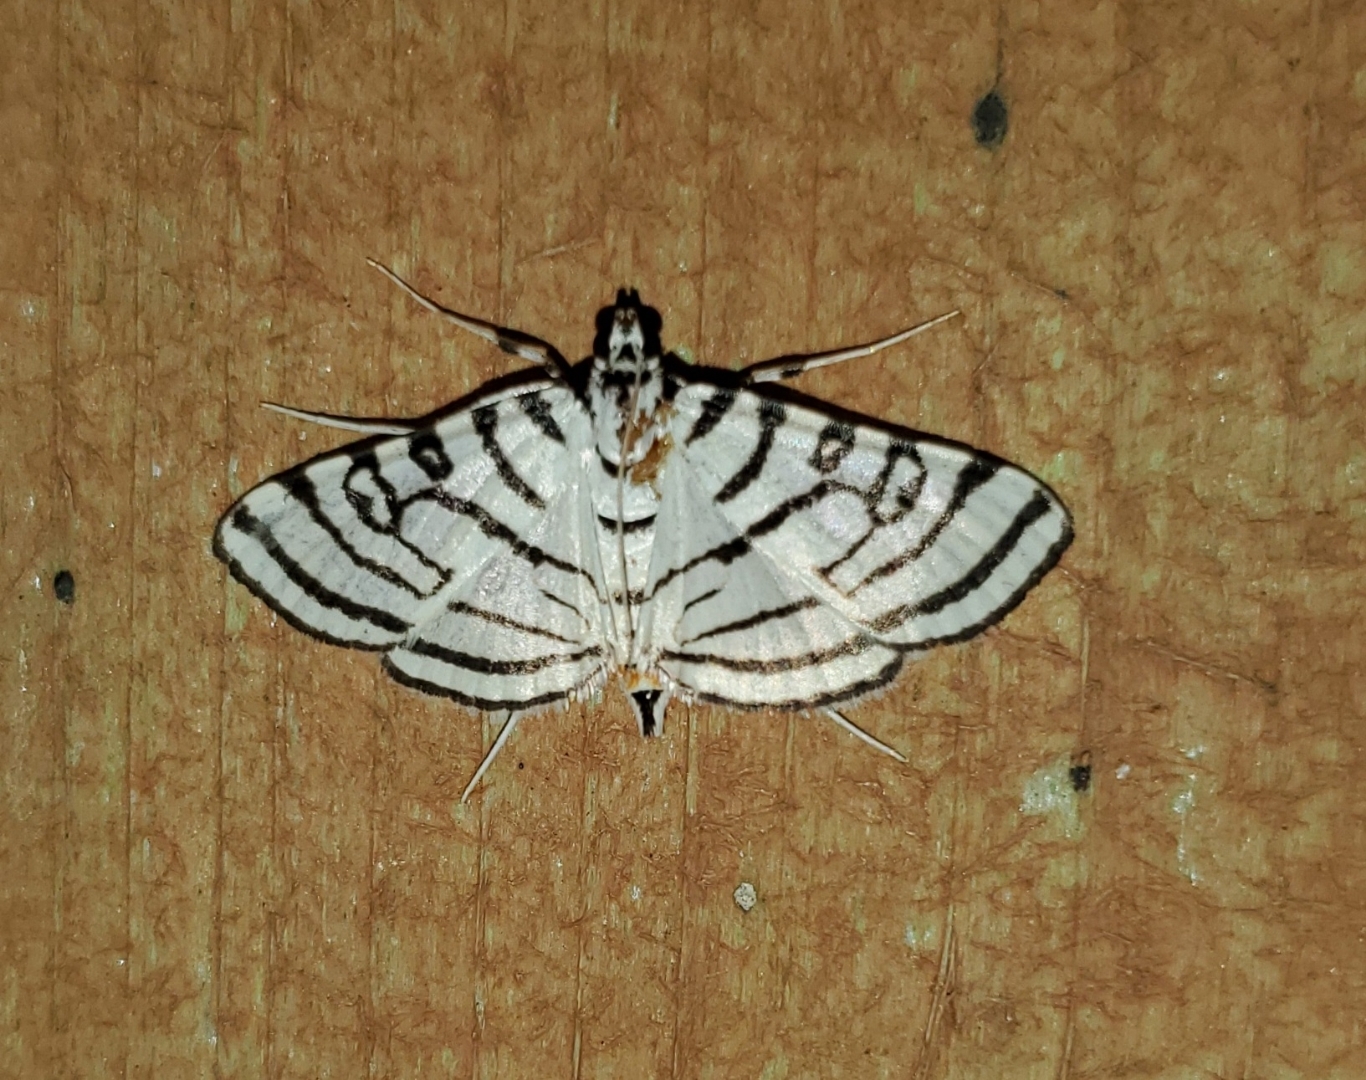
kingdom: Animalia
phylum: Arthropoda
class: Insecta
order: Lepidoptera
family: Crambidae
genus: Conchylodes
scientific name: Conchylodes concinnalis
